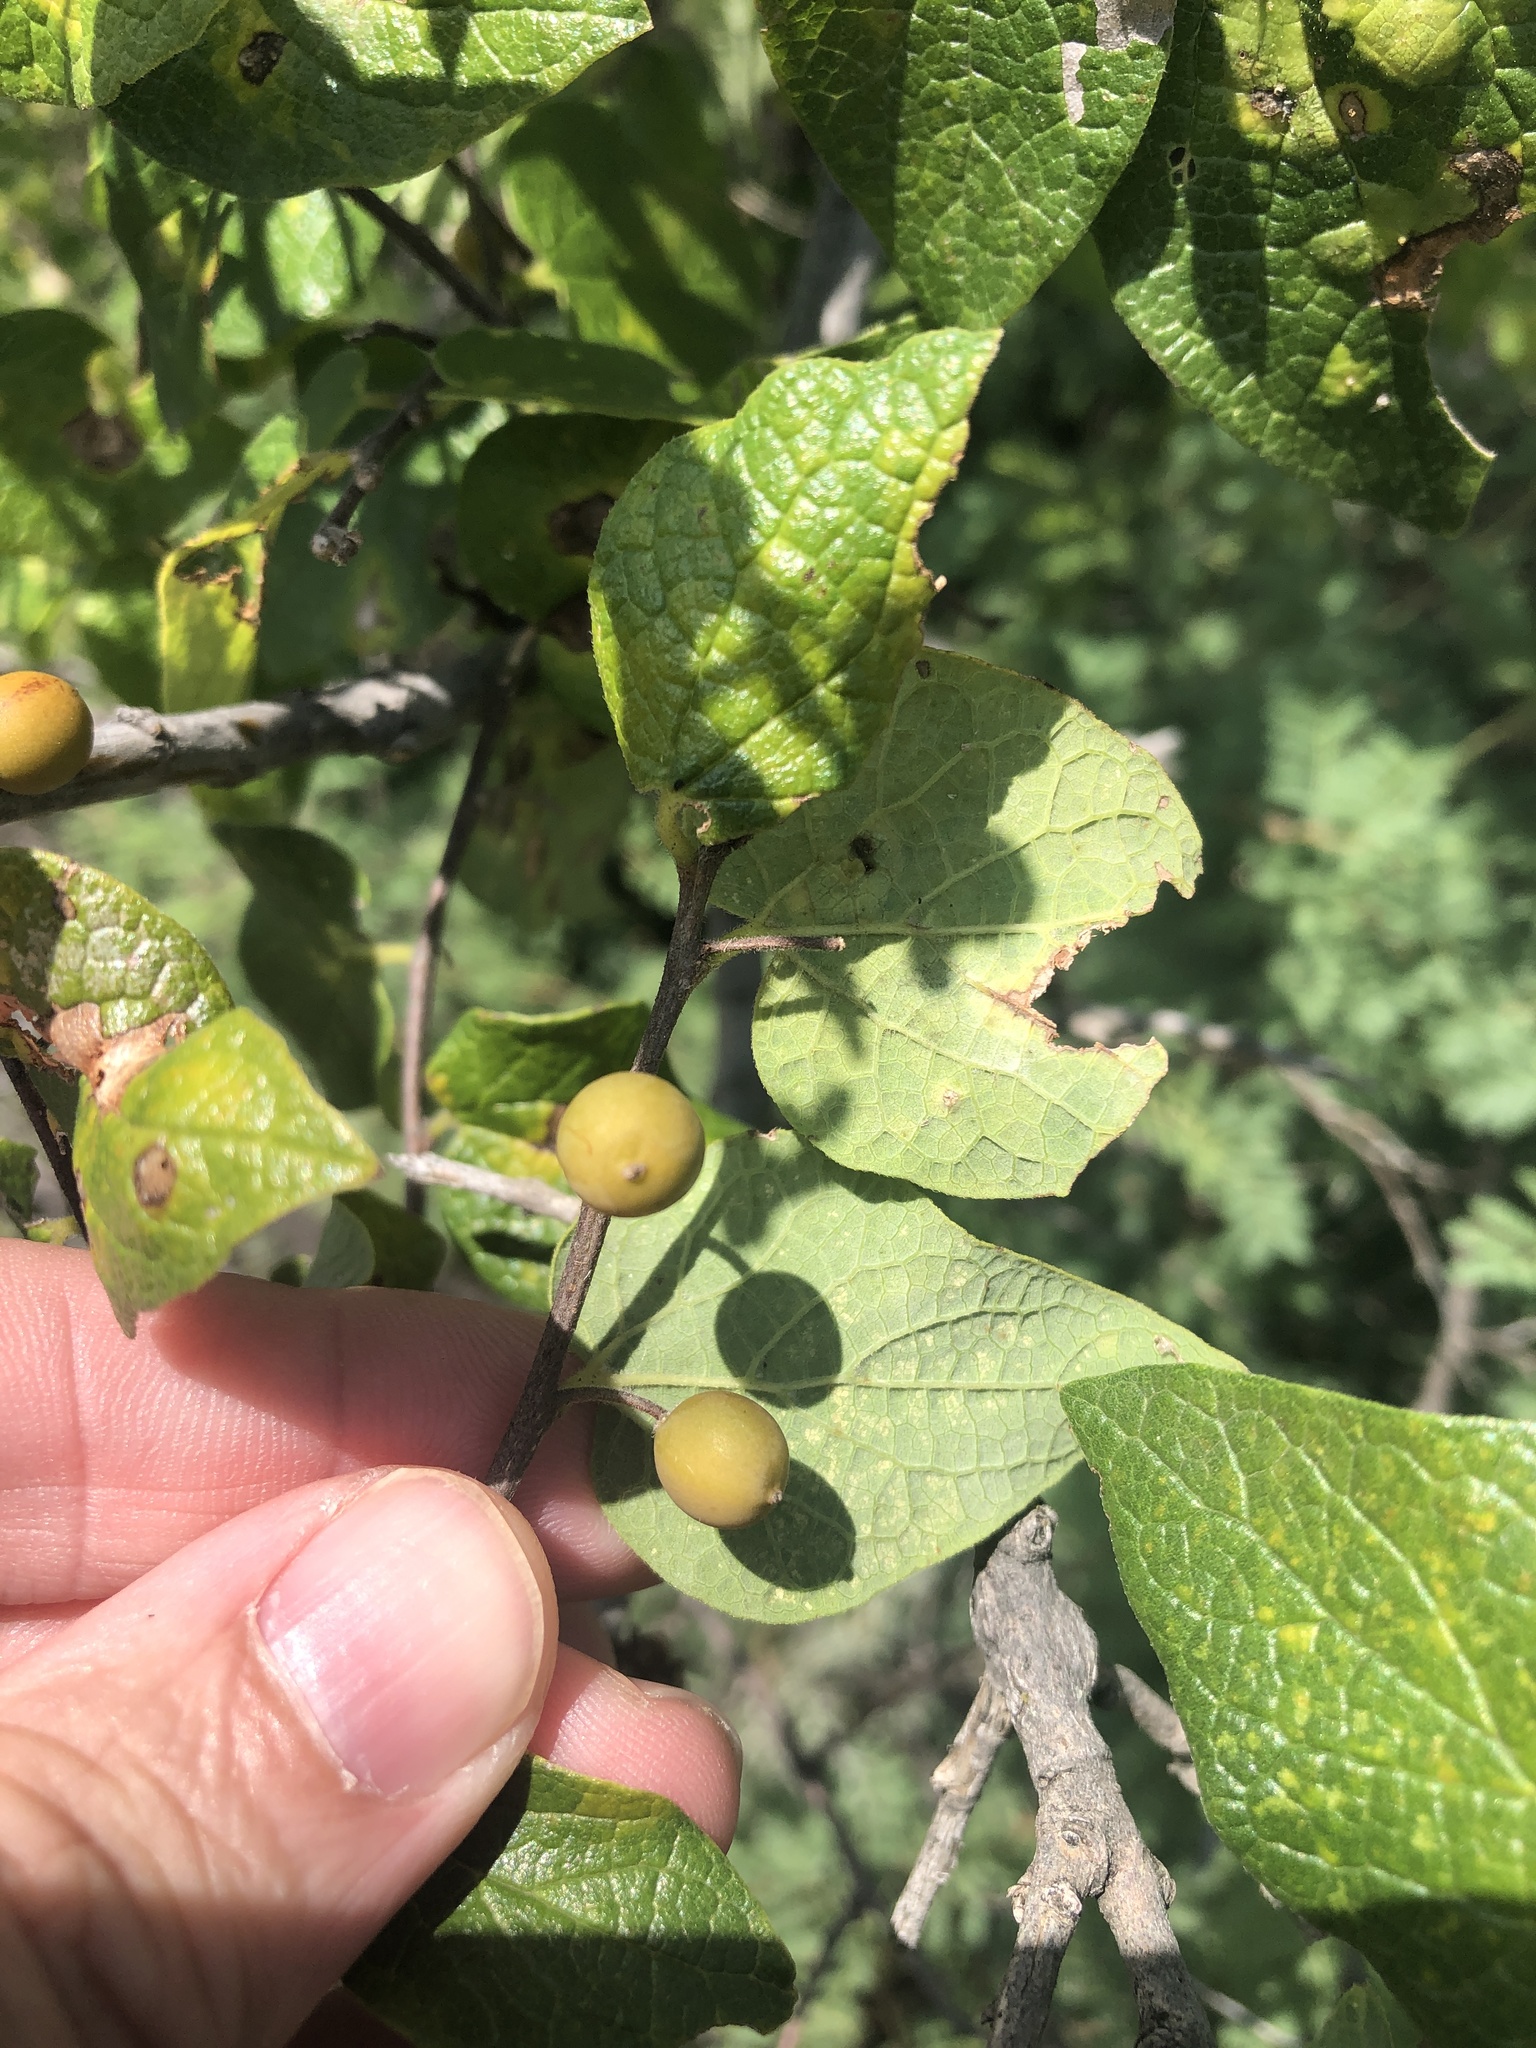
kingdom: Plantae
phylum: Tracheophyta
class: Magnoliopsida
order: Rosales
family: Cannabaceae
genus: Celtis
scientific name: Celtis reticulata
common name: Netleaf hackberry
